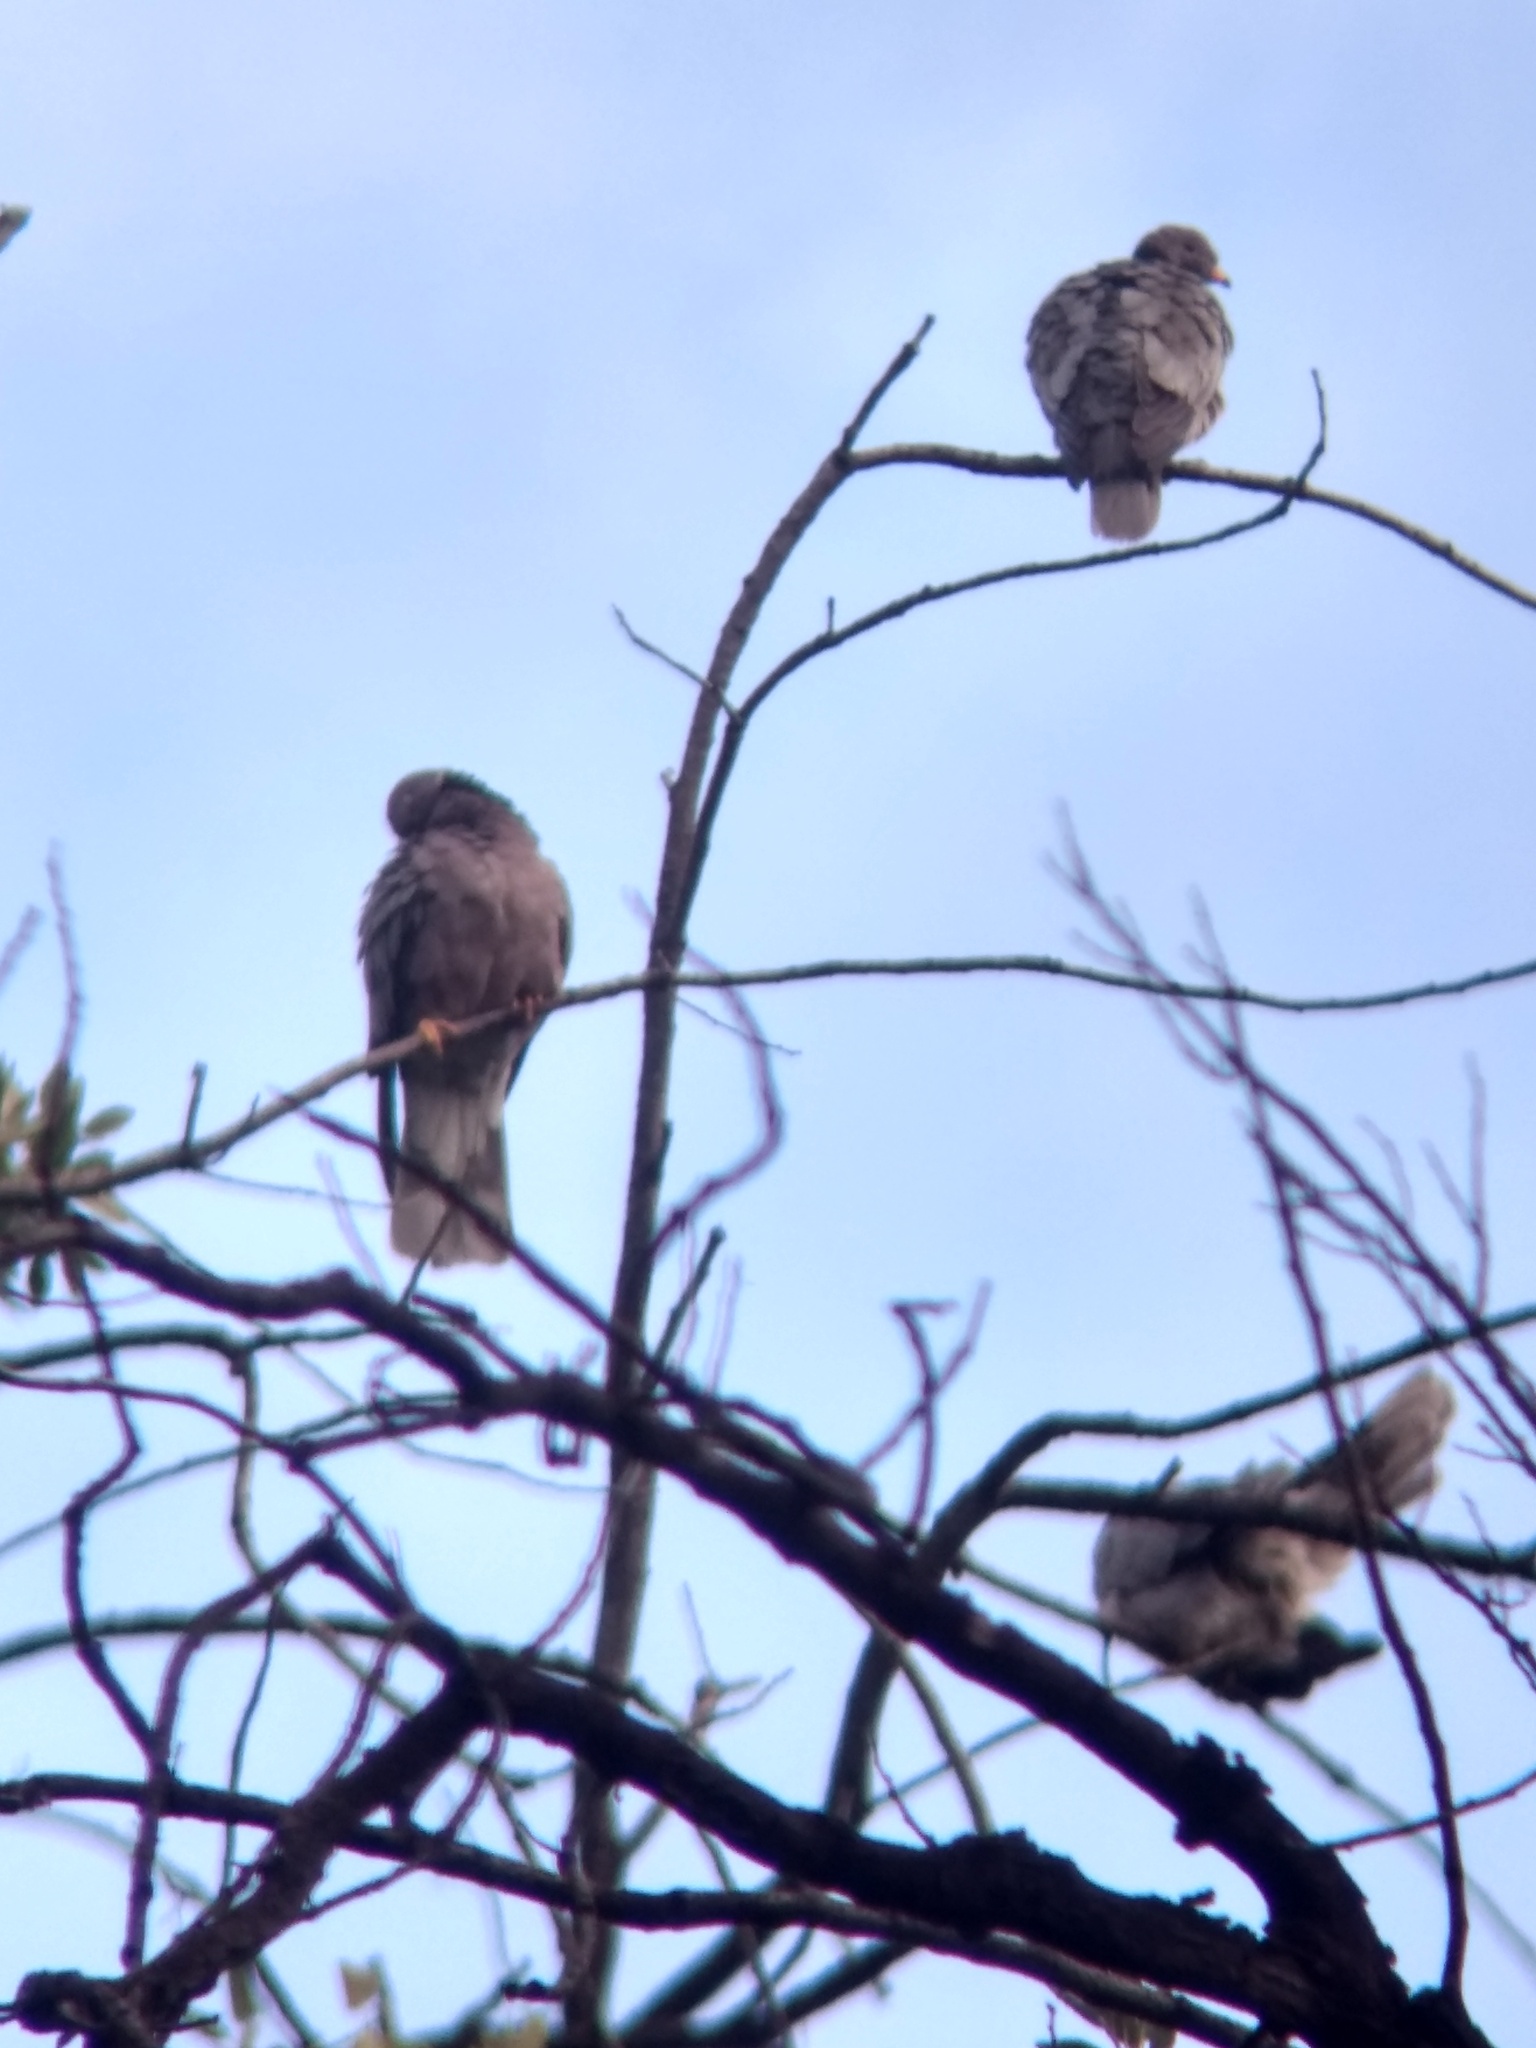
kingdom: Animalia
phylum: Chordata
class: Aves
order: Columbiformes
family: Columbidae
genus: Patagioenas
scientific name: Patagioenas fasciata
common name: Band-tailed pigeon
